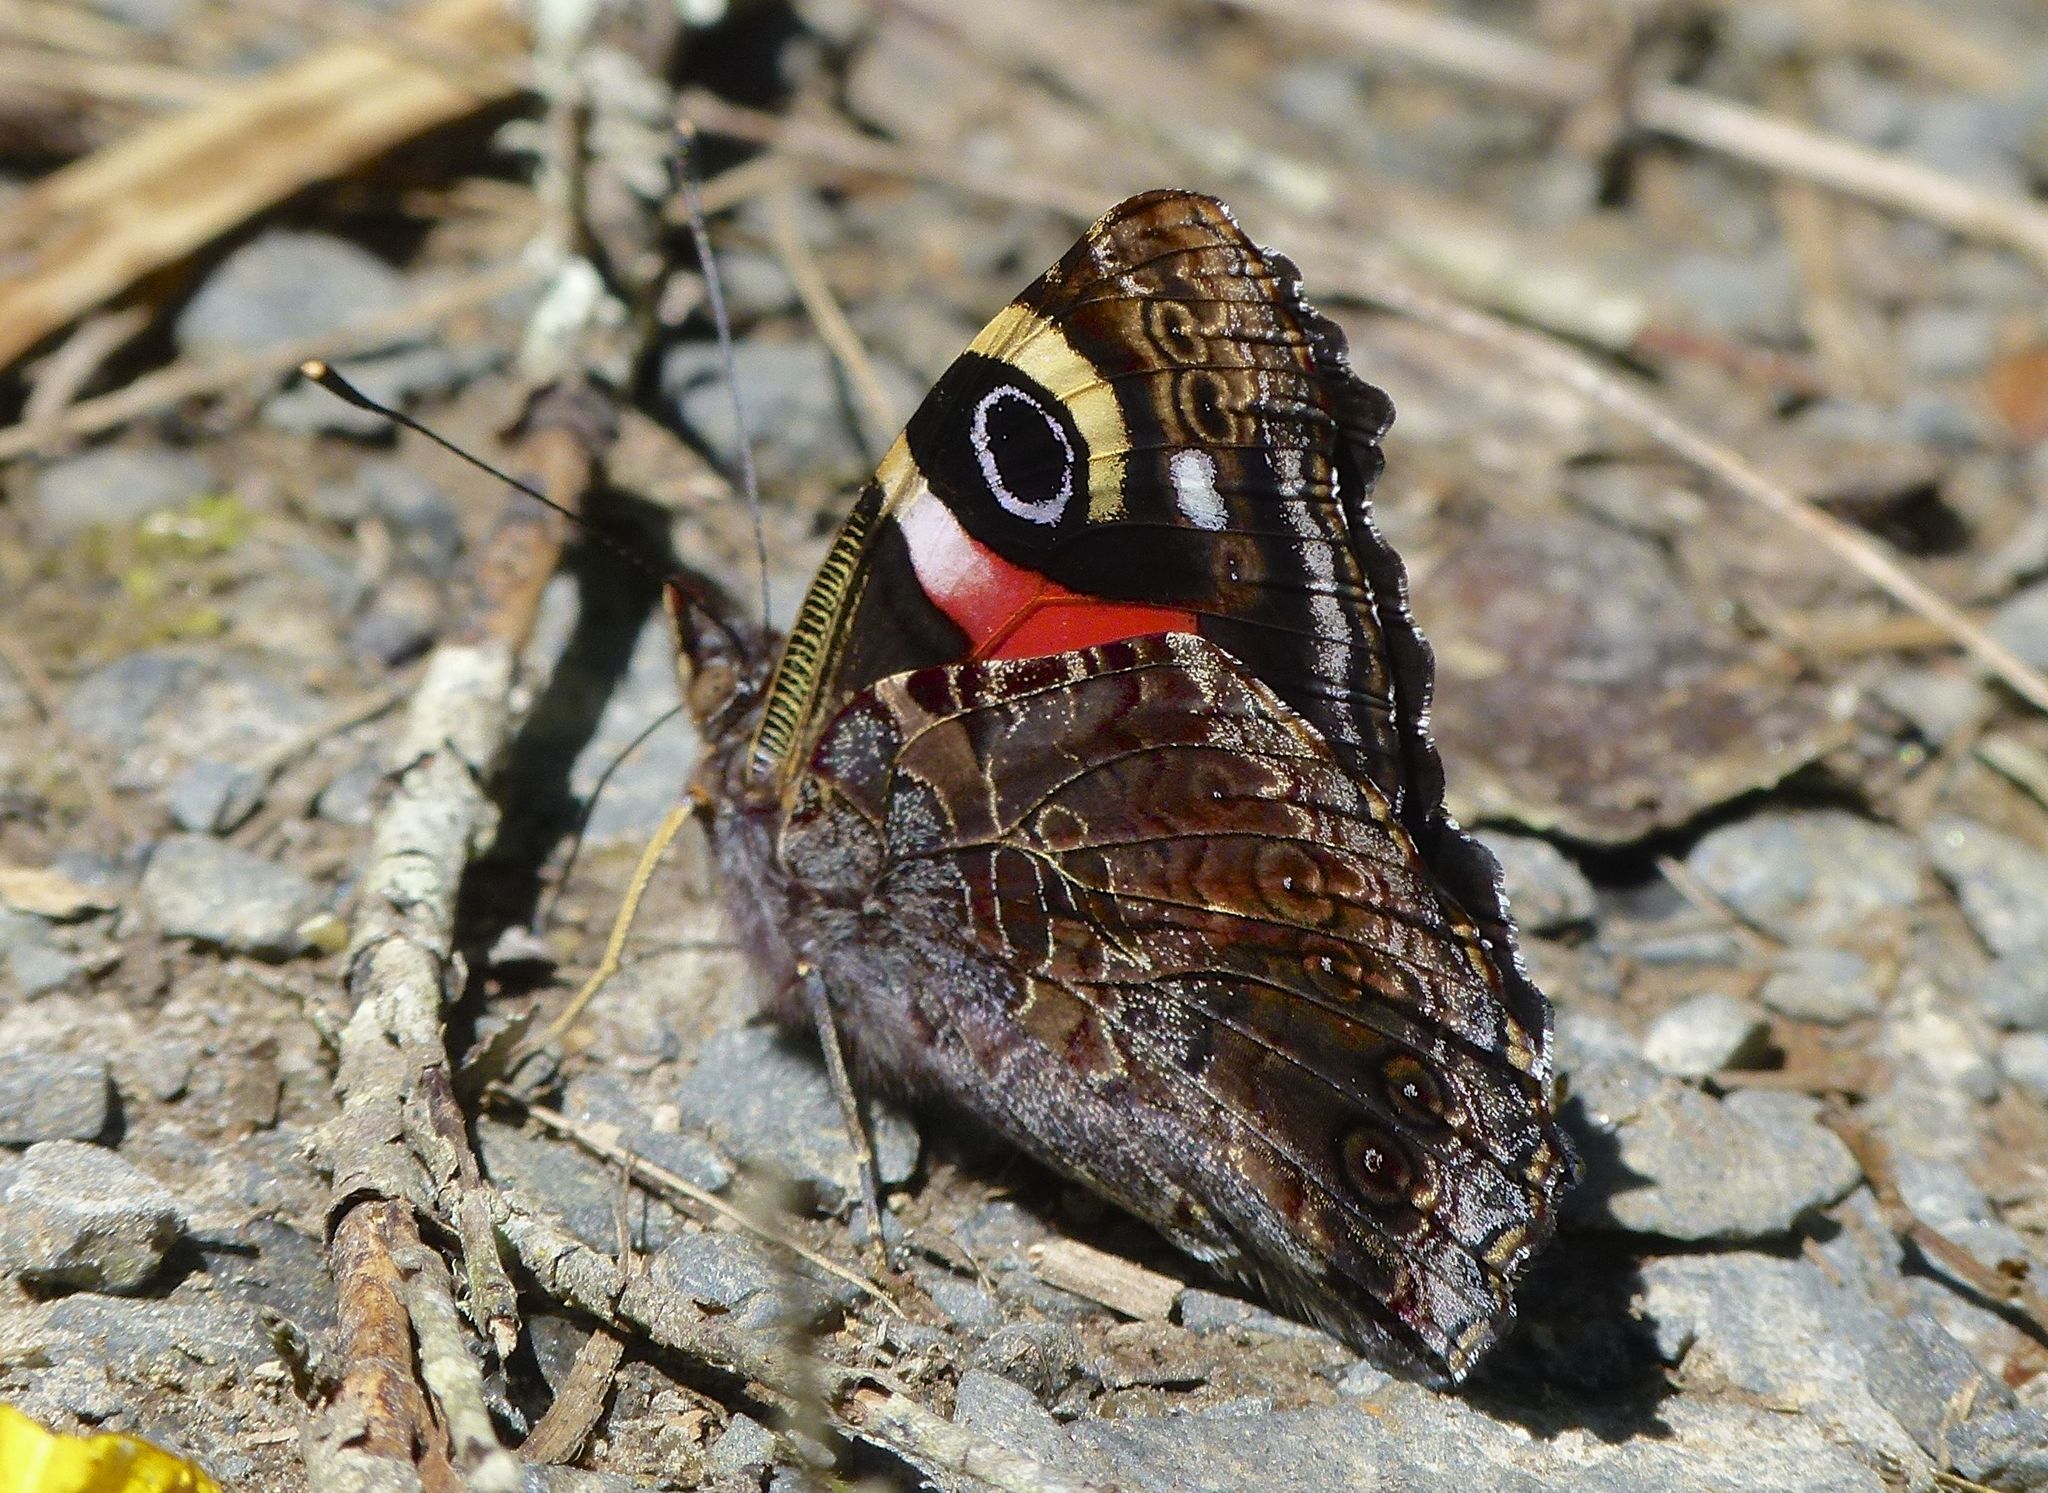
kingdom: Animalia
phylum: Arthropoda
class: Insecta
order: Lepidoptera
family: Nymphalidae
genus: Vanessa
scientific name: Vanessa gonerilla
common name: New zealand red admiral
